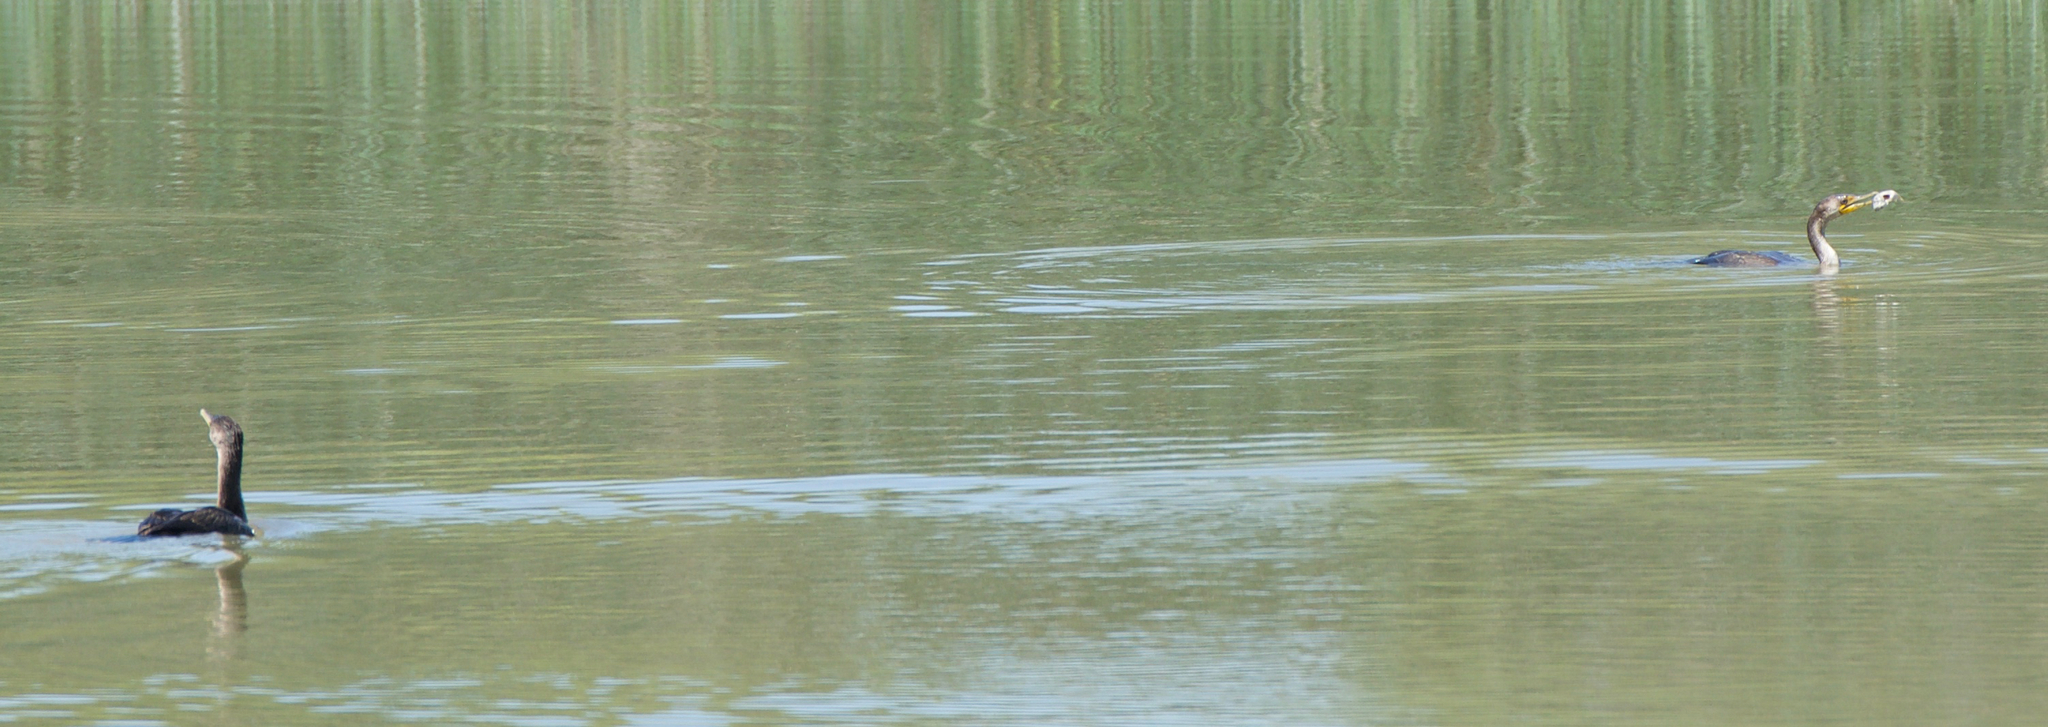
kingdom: Animalia
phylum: Chordata
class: Aves
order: Suliformes
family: Phalacrocoracidae
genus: Phalacrocorax
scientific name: Phalacrocorax auritus
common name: Double-crested cormorant
